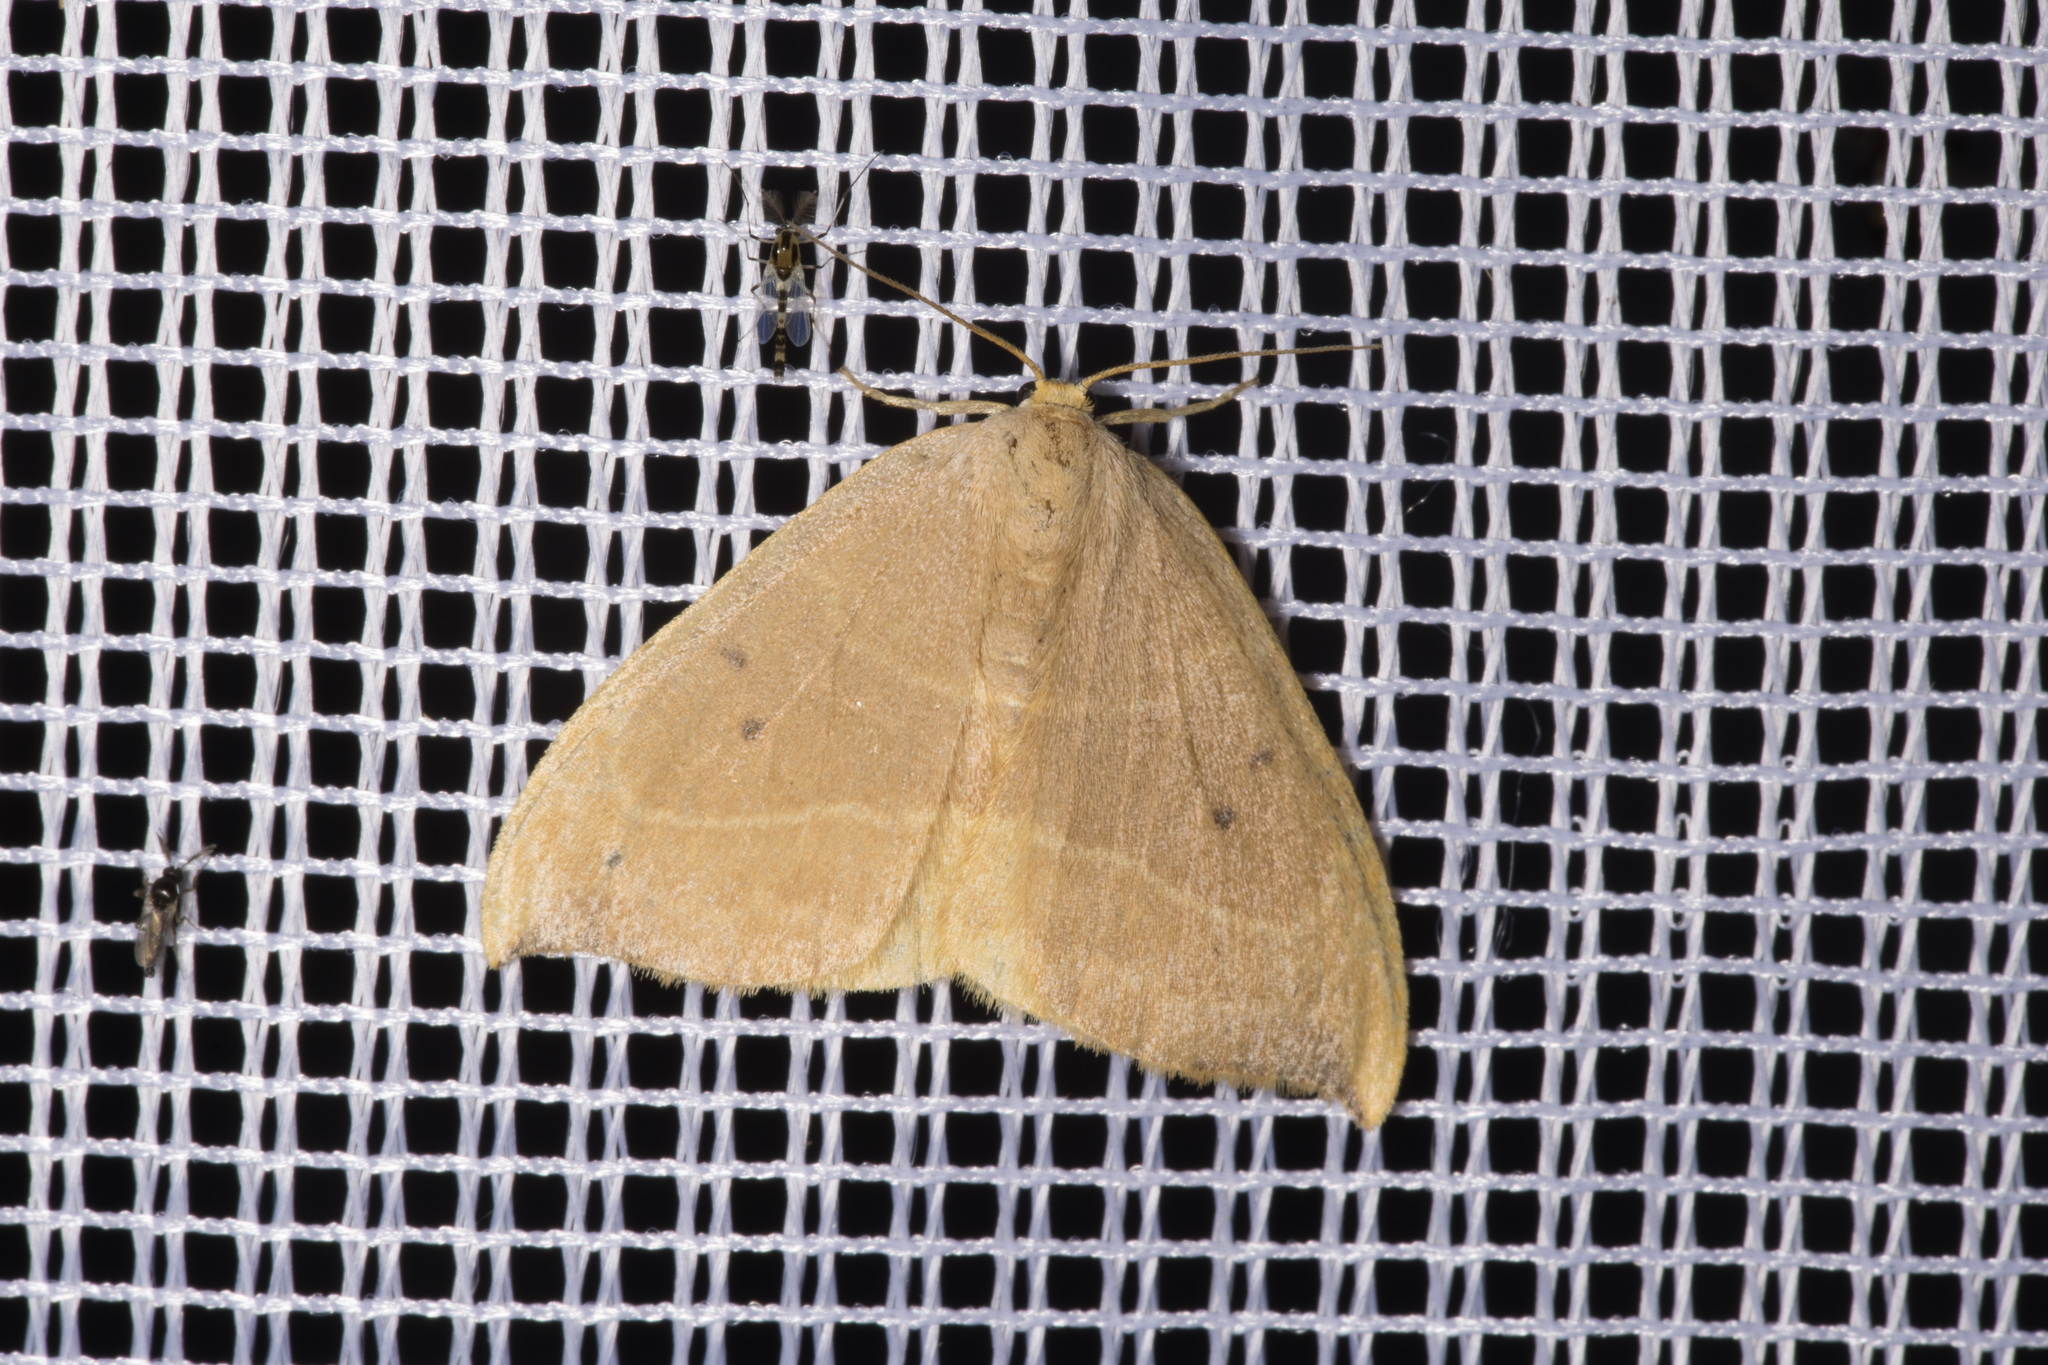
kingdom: Animalia
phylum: Arthropoda
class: Insecta
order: Lepidoptera
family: Drepanidae
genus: Watsonalla
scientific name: Watsonalla binaria
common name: Oak hook-tip
